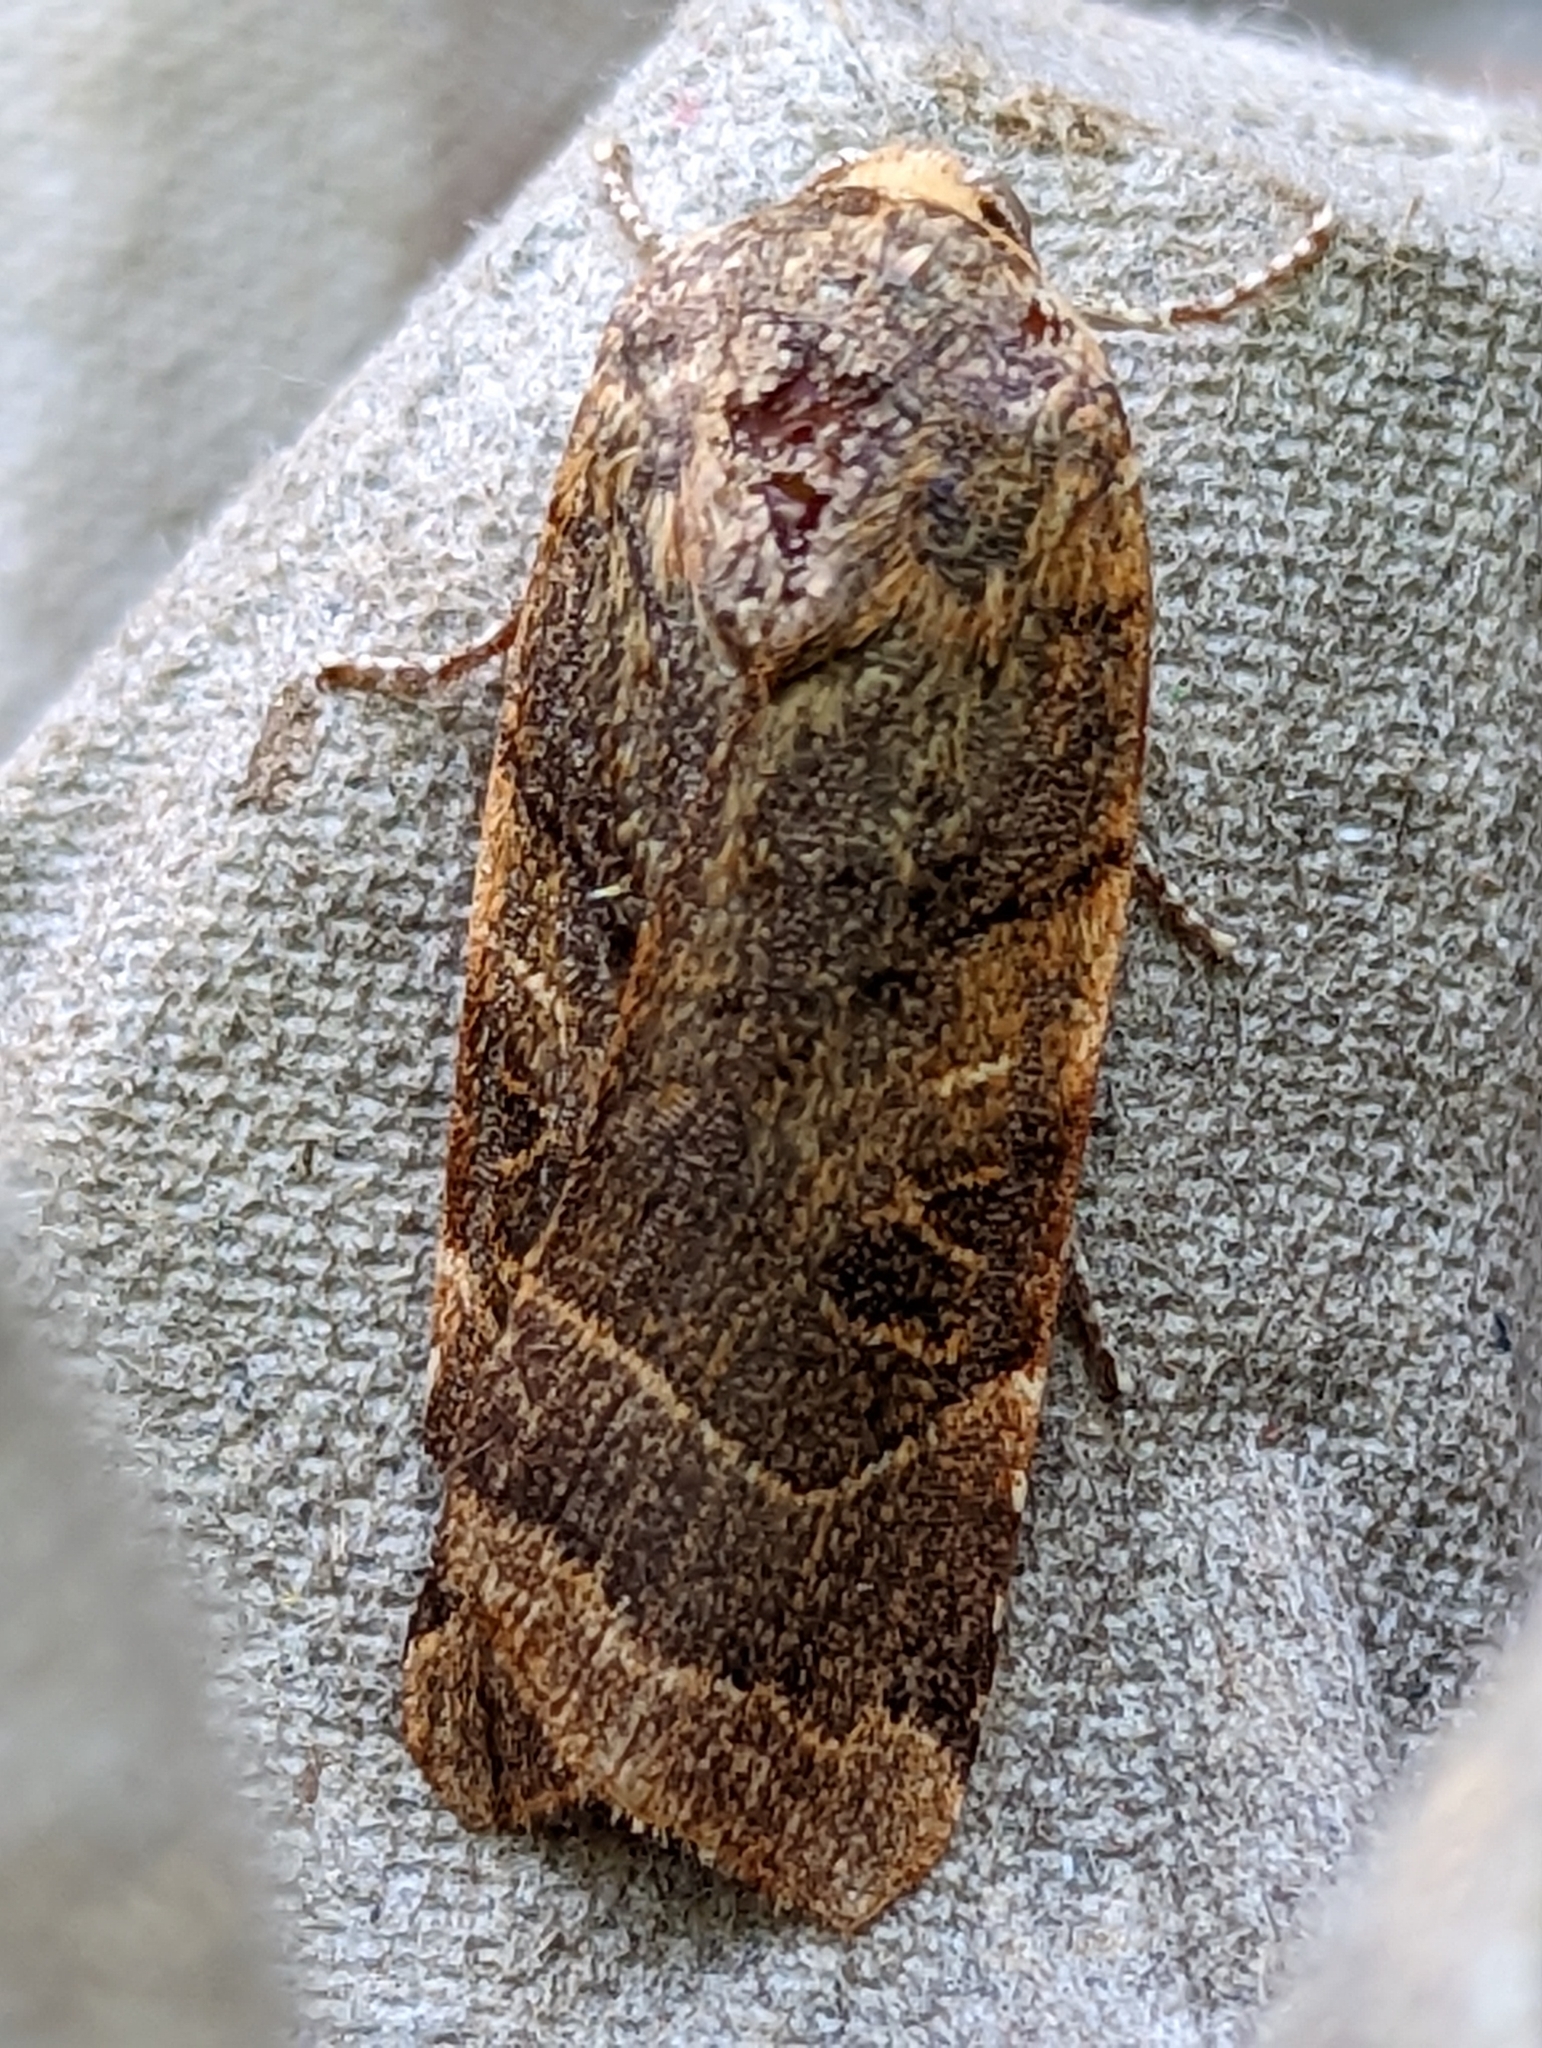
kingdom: Animalia
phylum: Arthropoda
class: Insecta
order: Lepidoptera
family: Noctuidae
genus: Noctua
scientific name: Noctua fimbriata
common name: Broad-bordered yellow underwing
